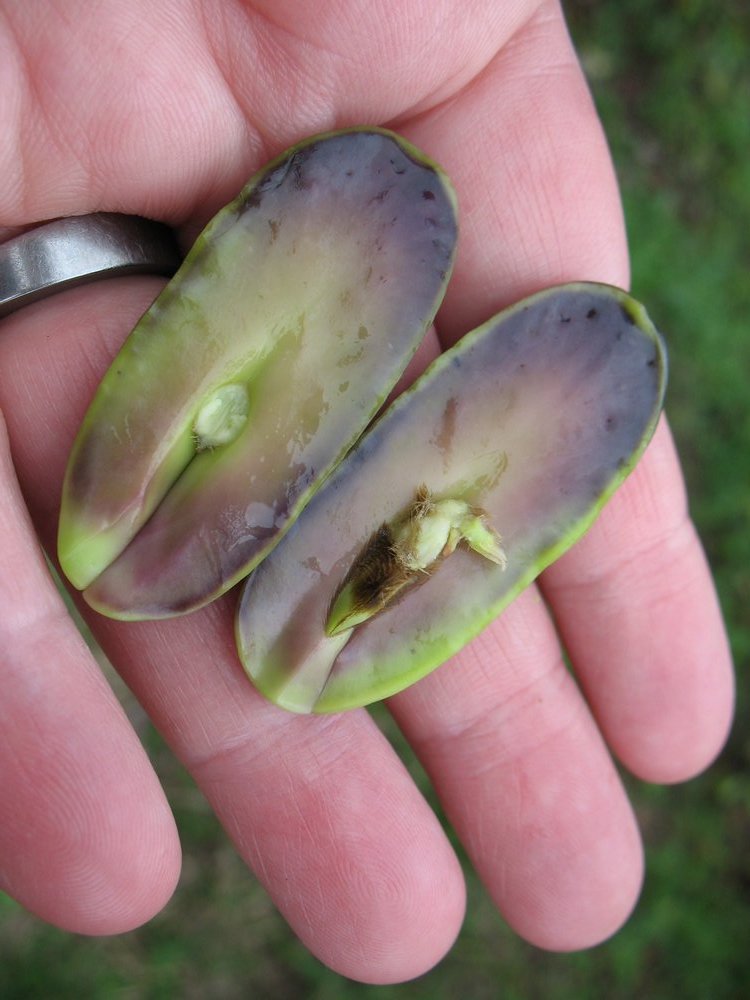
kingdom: Plantae
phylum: Tracheophyta
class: Magnoliopsida
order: Fabales
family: Fabaceae
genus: Inga
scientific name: Inga spectabilis
